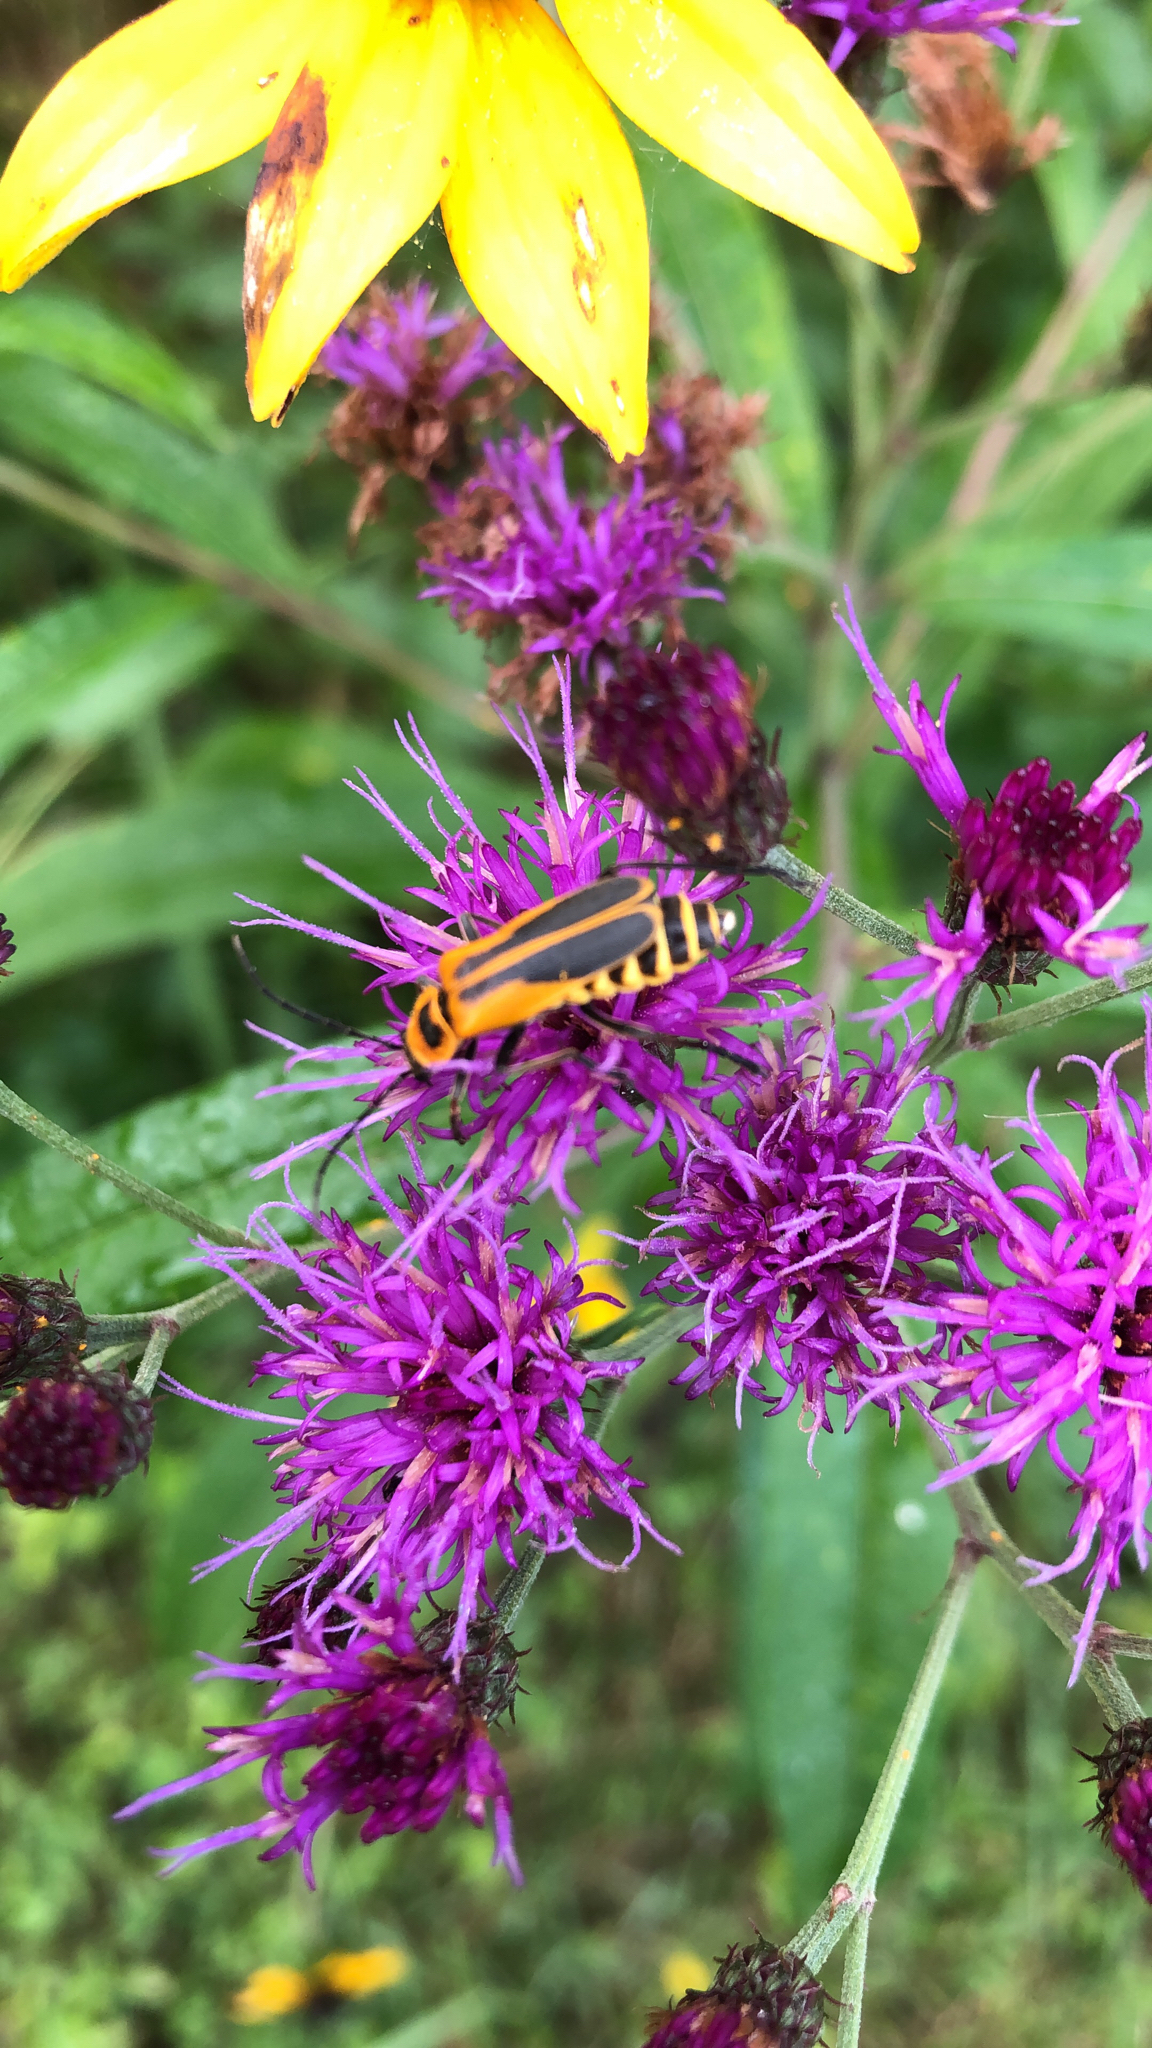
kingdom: Animalia
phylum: Arthropoda
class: Insecta
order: Coleoptera
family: Cantharidae
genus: Chauliognathus
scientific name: Chauliognathus pensylvanicus
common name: Goldenrod soldier beetle
